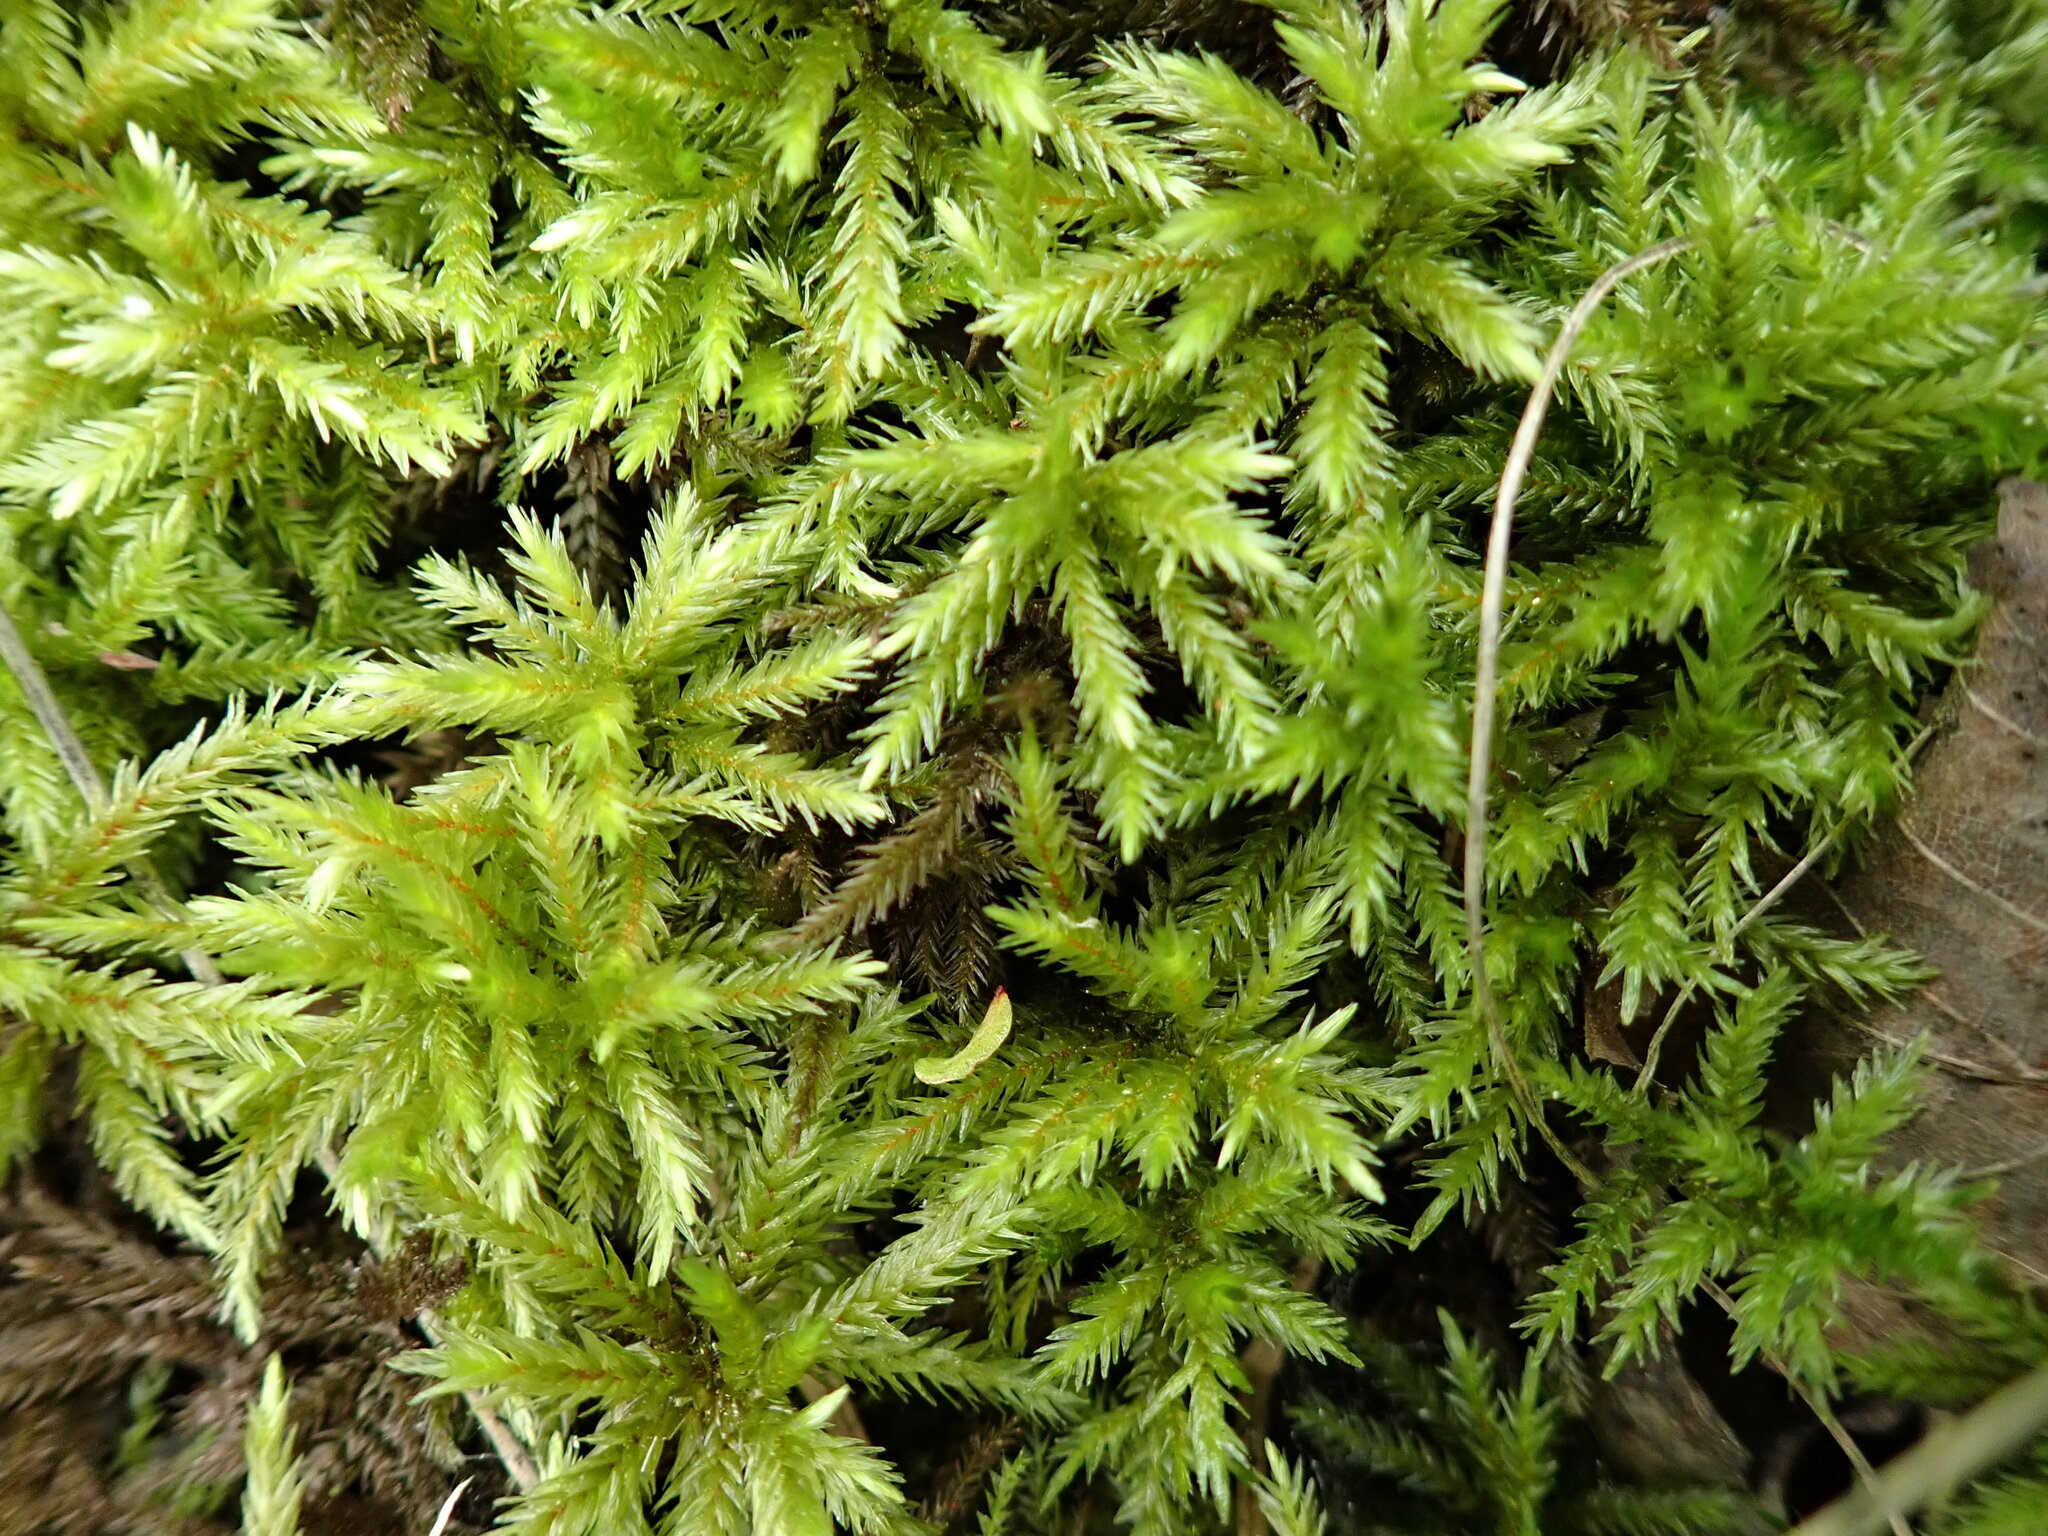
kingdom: Plantae
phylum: Bryophyta
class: Bryopsida
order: Hypnales
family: Climaciaceae
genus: Climacium
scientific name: Climacium dendroides
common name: Northern tree moss
